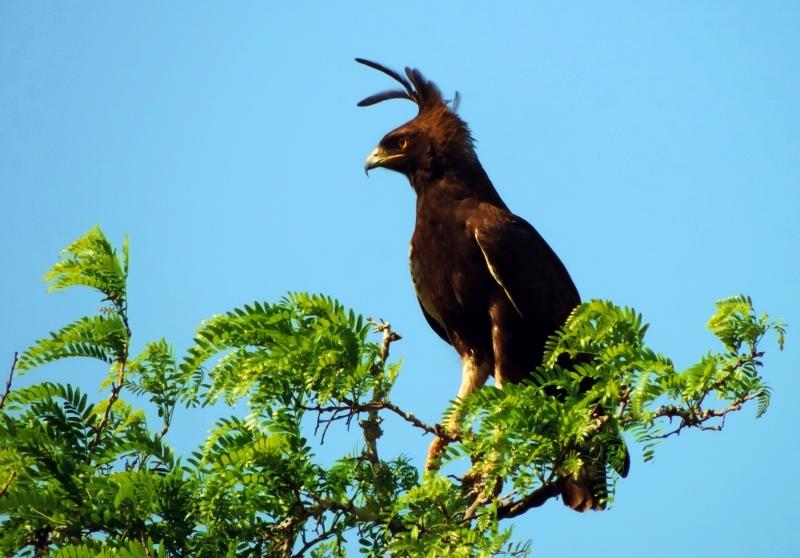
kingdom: Animalia
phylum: Chordata
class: Aves
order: Accipitriformes
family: Accipitridae
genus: Lophaetus
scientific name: Lophaetus occipitalis
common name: Long-crested eagle
